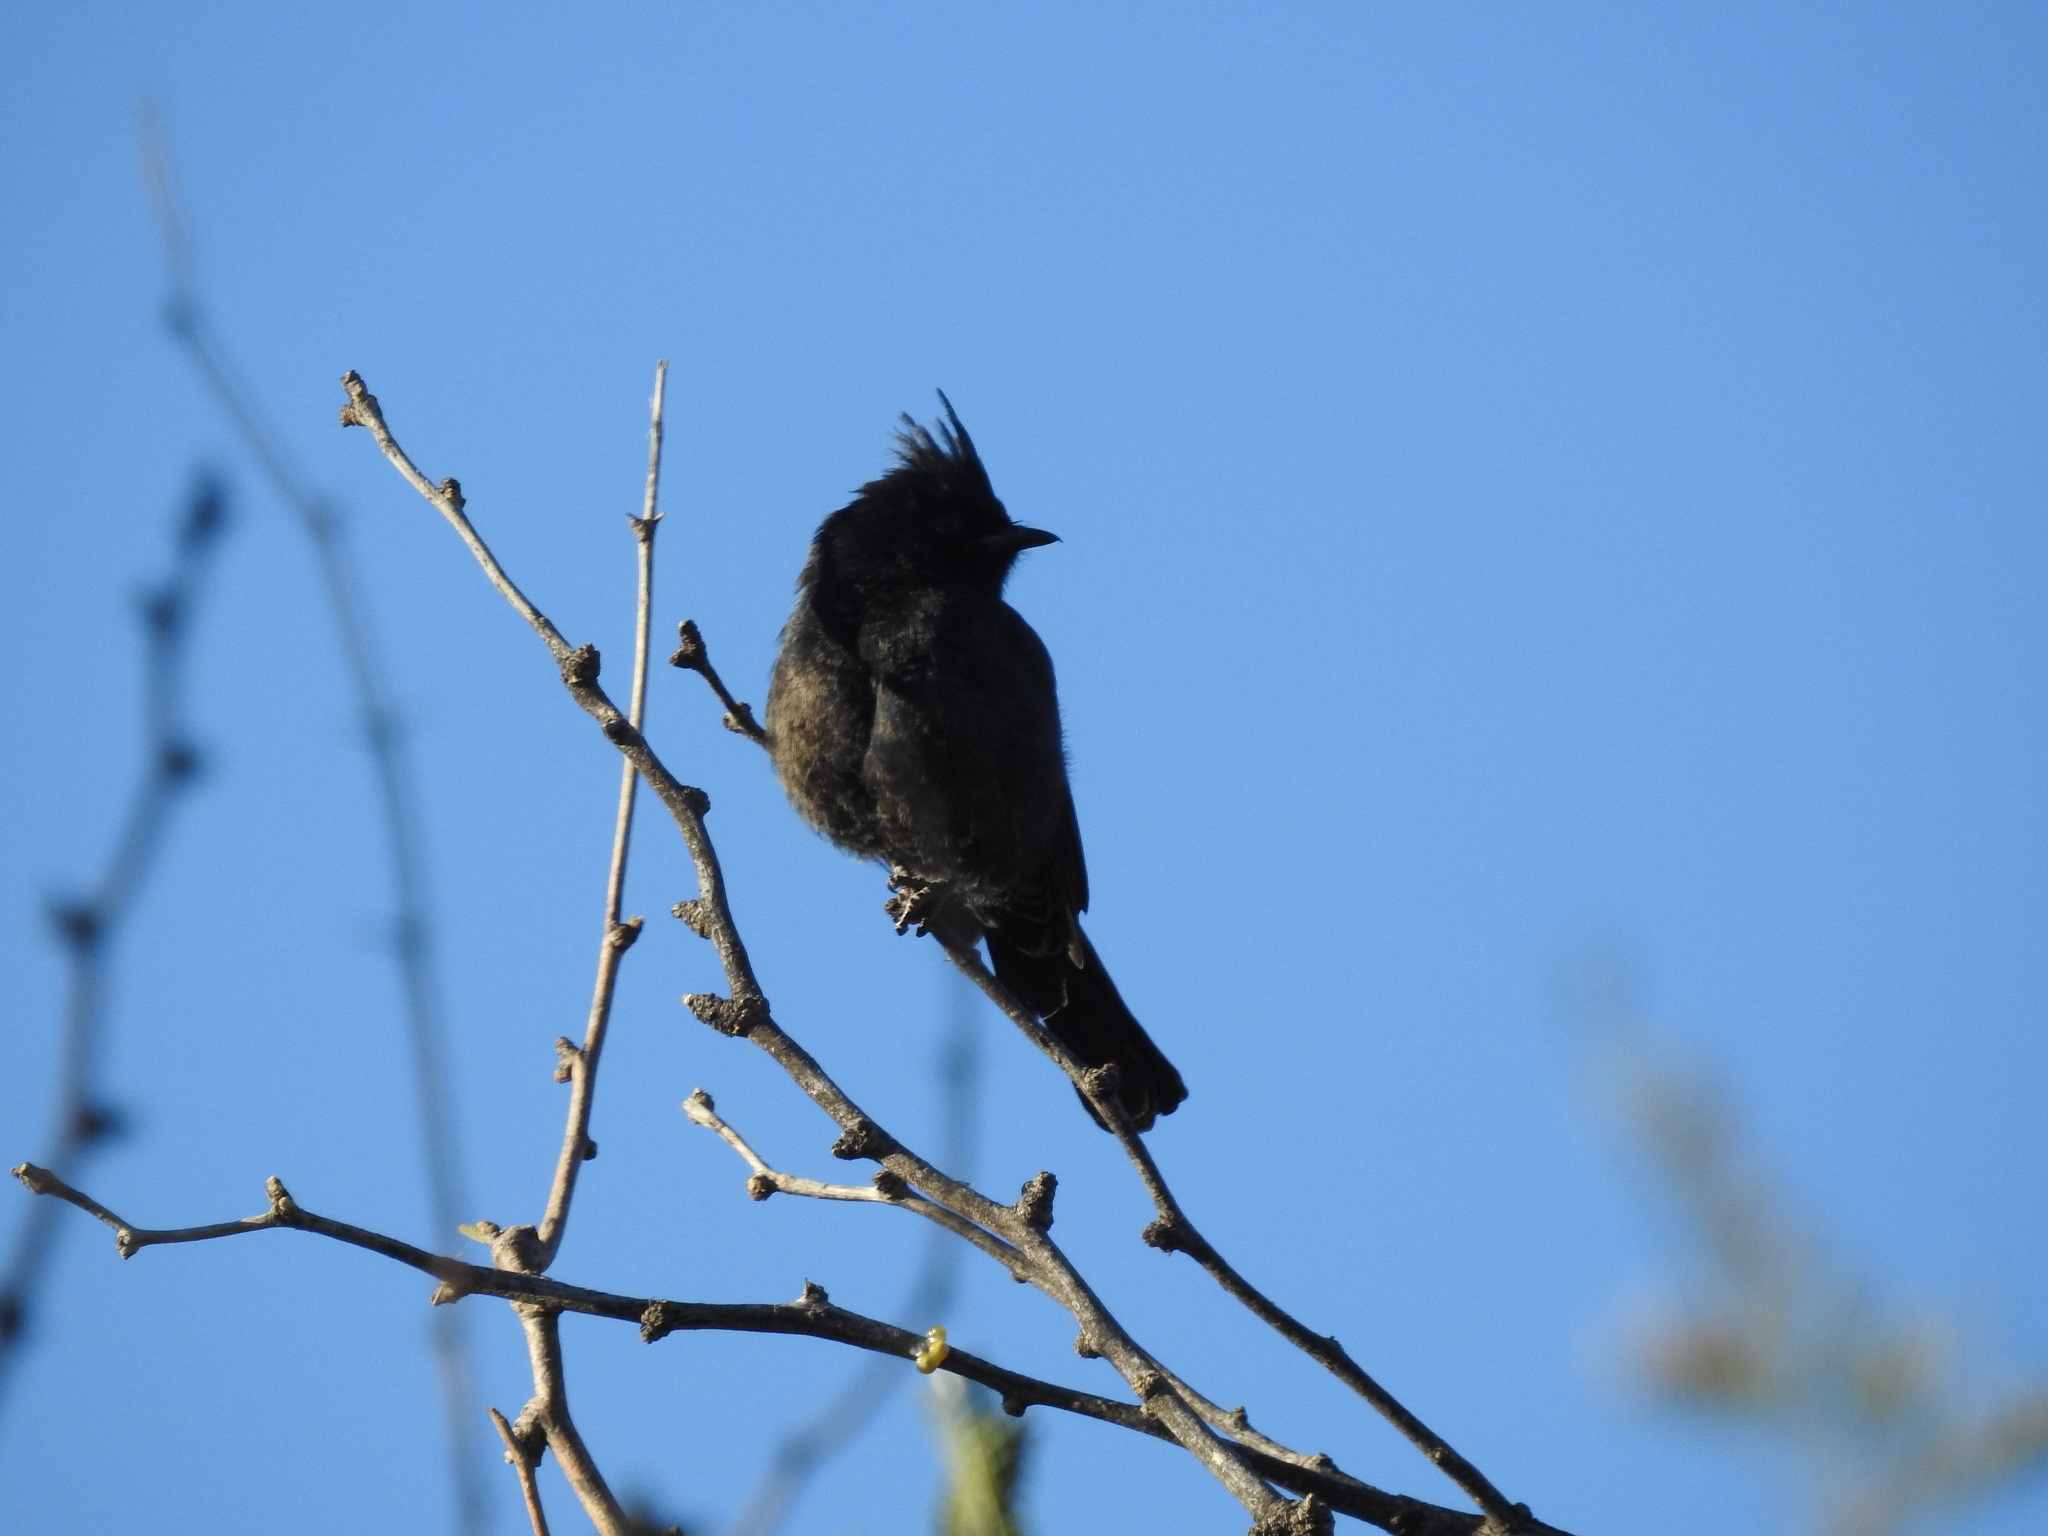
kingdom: Animalia
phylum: Chordata
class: Aves
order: Passeriformes
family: Ptilogonatidae
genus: Phainopepla
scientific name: Phainopepla nitens
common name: Phainopepla
